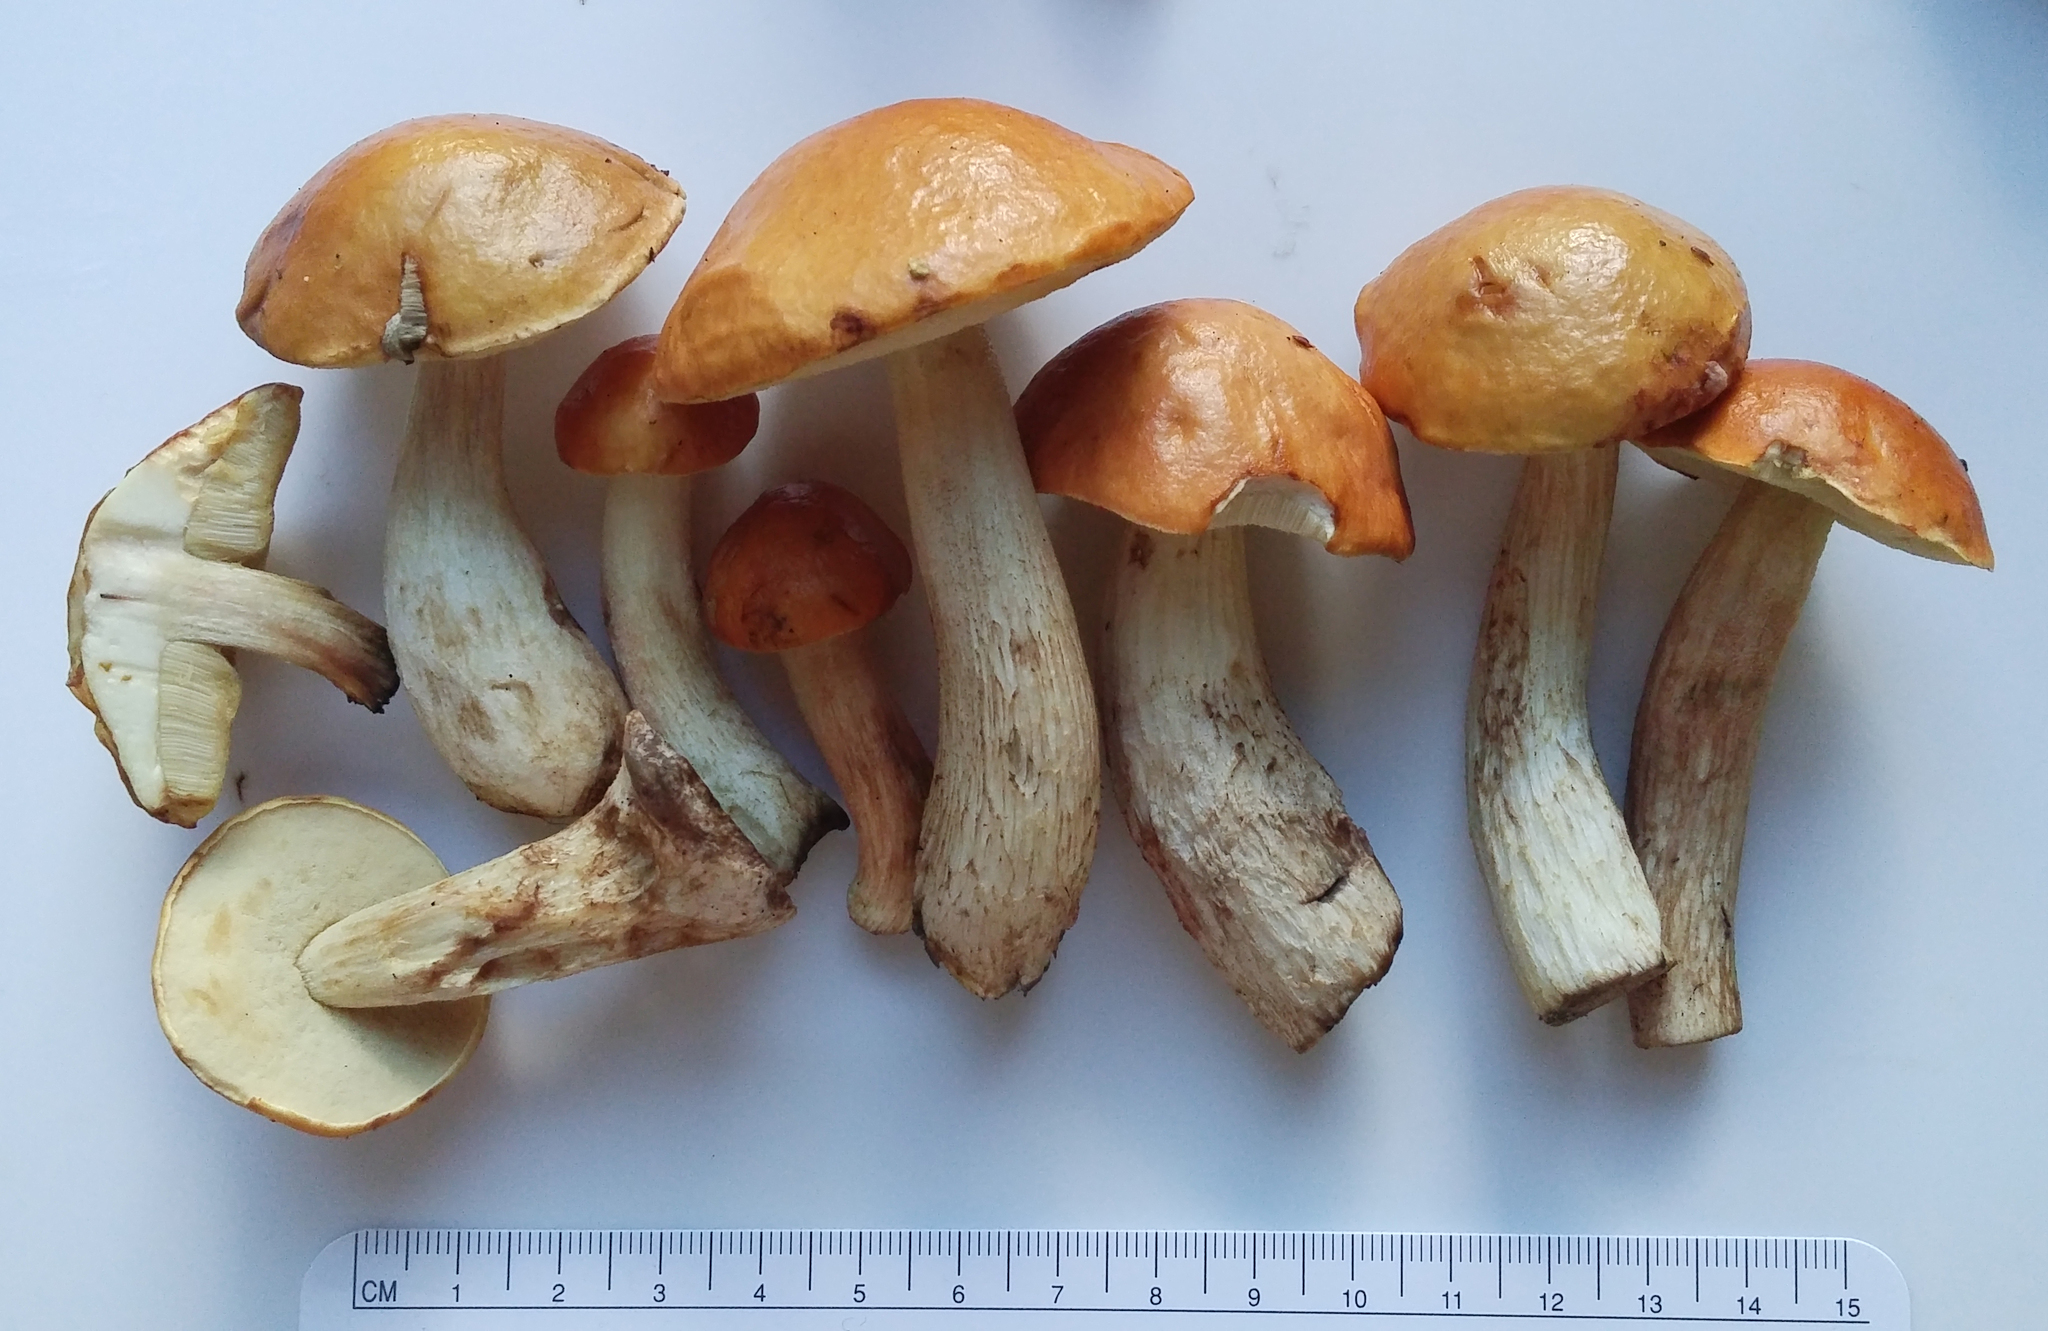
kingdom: Fungi
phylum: Basidiomycota
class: Agaricomycetes
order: Boletales
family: Boletaceae
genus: Leccinum
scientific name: Leccinum longicurvipes
